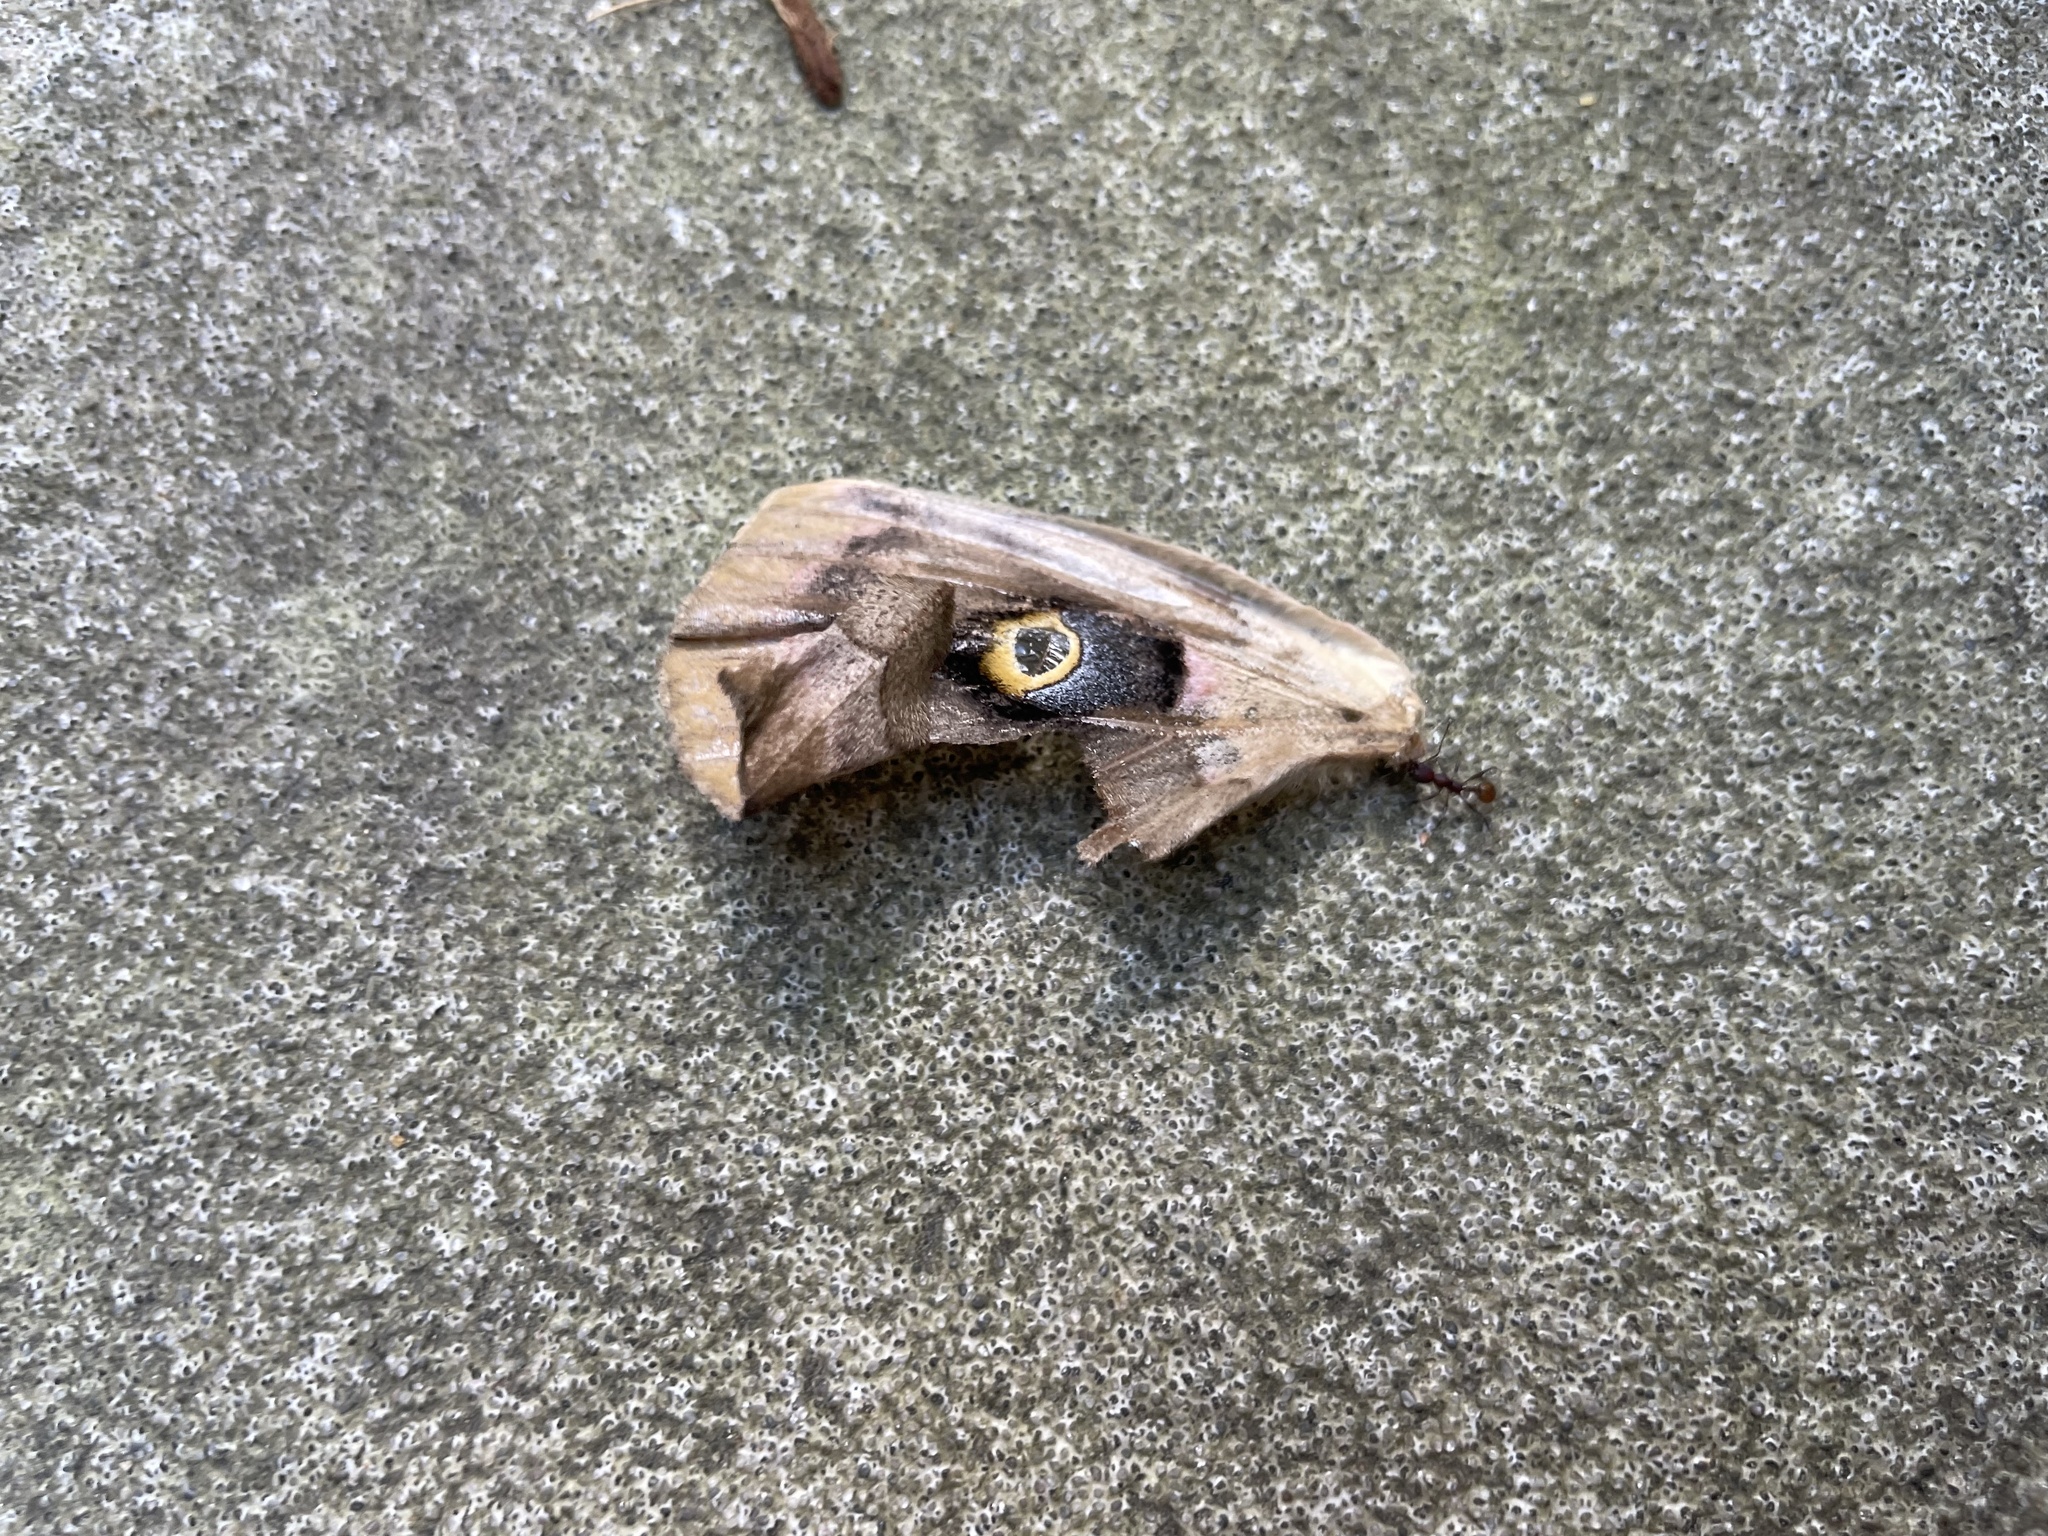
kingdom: Animalia
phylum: Arthropoda
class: Insecta
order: Lepidoptera
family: Saturniidae
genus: Antheraea
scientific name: Antheraea polyphemus
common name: Polyphemus moth
